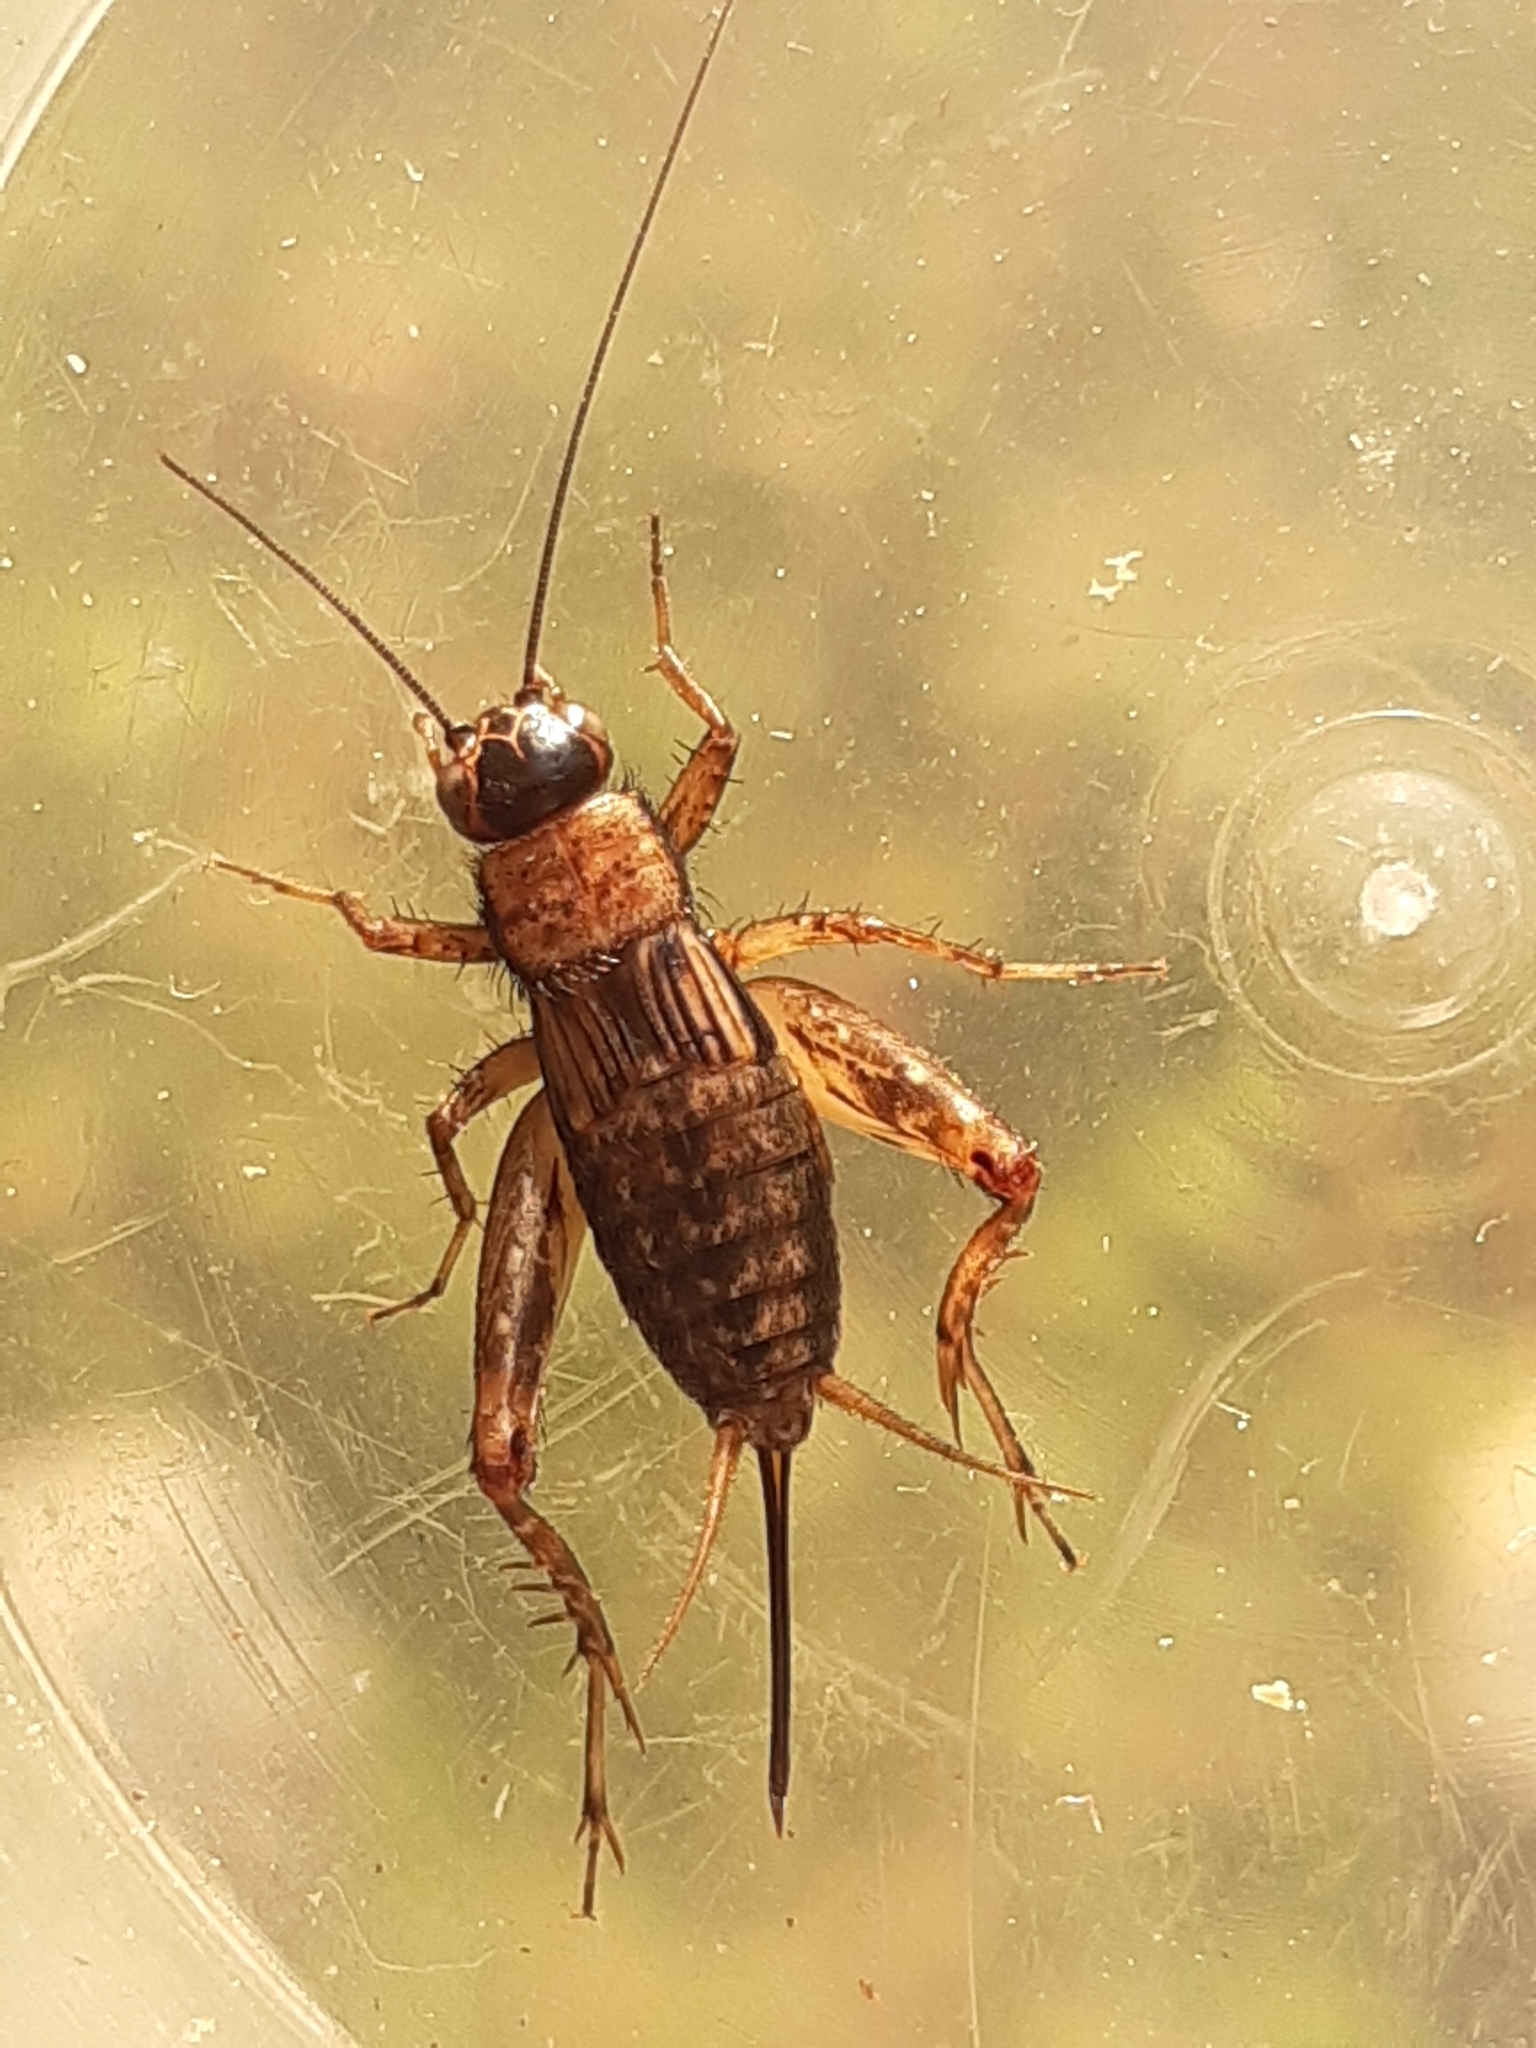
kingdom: Animalia
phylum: Arthropoda
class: Insecta
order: Orthoptera
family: Trigonidiidae
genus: Nemobius
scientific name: Nemobius sylvestris
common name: Wood-cricket
